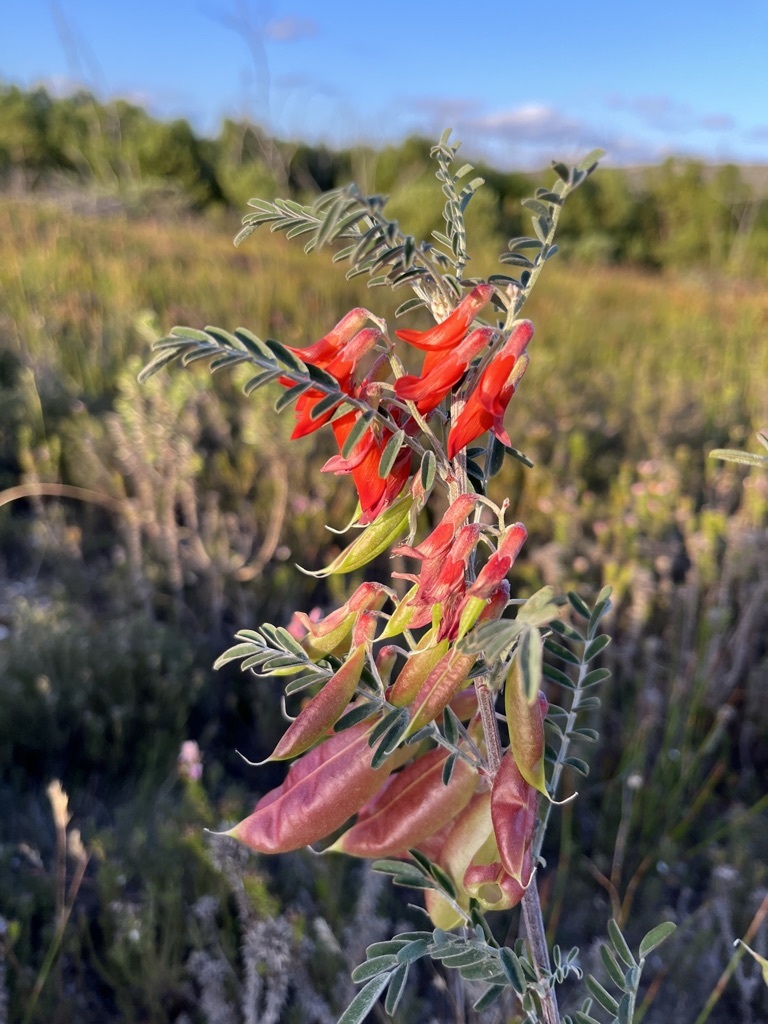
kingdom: Plantae
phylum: Tracheophyta
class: Magnoliopsida
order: Fabales
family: Fabaceae
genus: Lessertia
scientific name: Lessertia frutescens
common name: Balloon-pea
